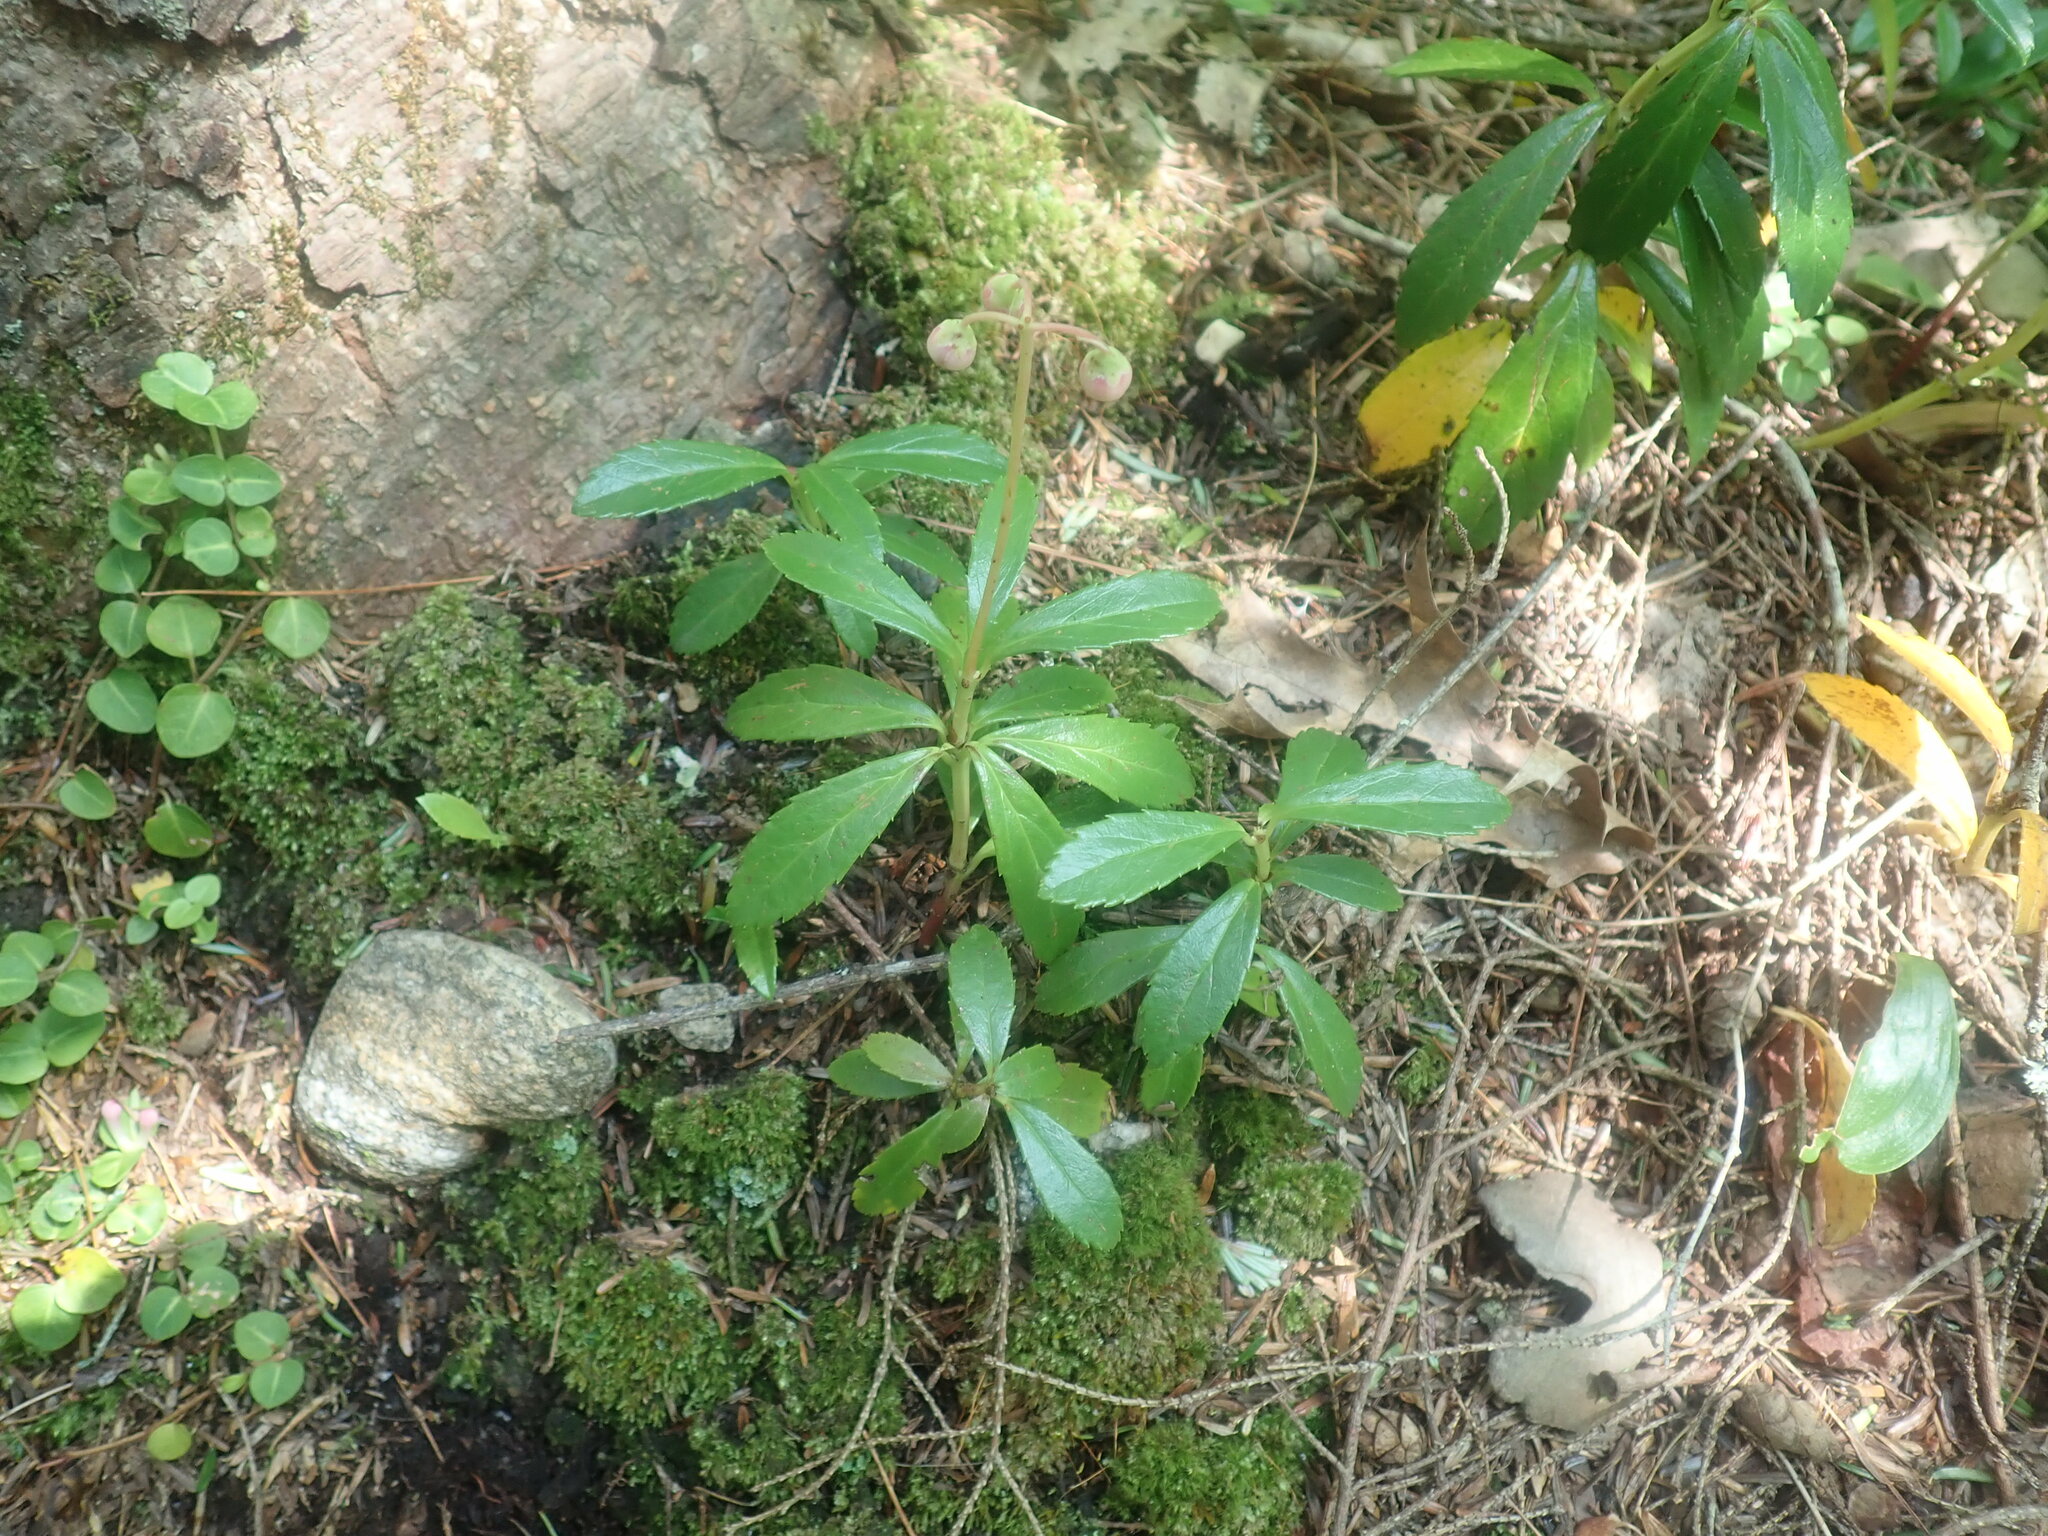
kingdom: Plantae
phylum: Tracheophyta
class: Magnoliopsida
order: Ericales
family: Ericaceae
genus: Chimaphila
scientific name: Chimaphila umbellata
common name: Pipsissewa
